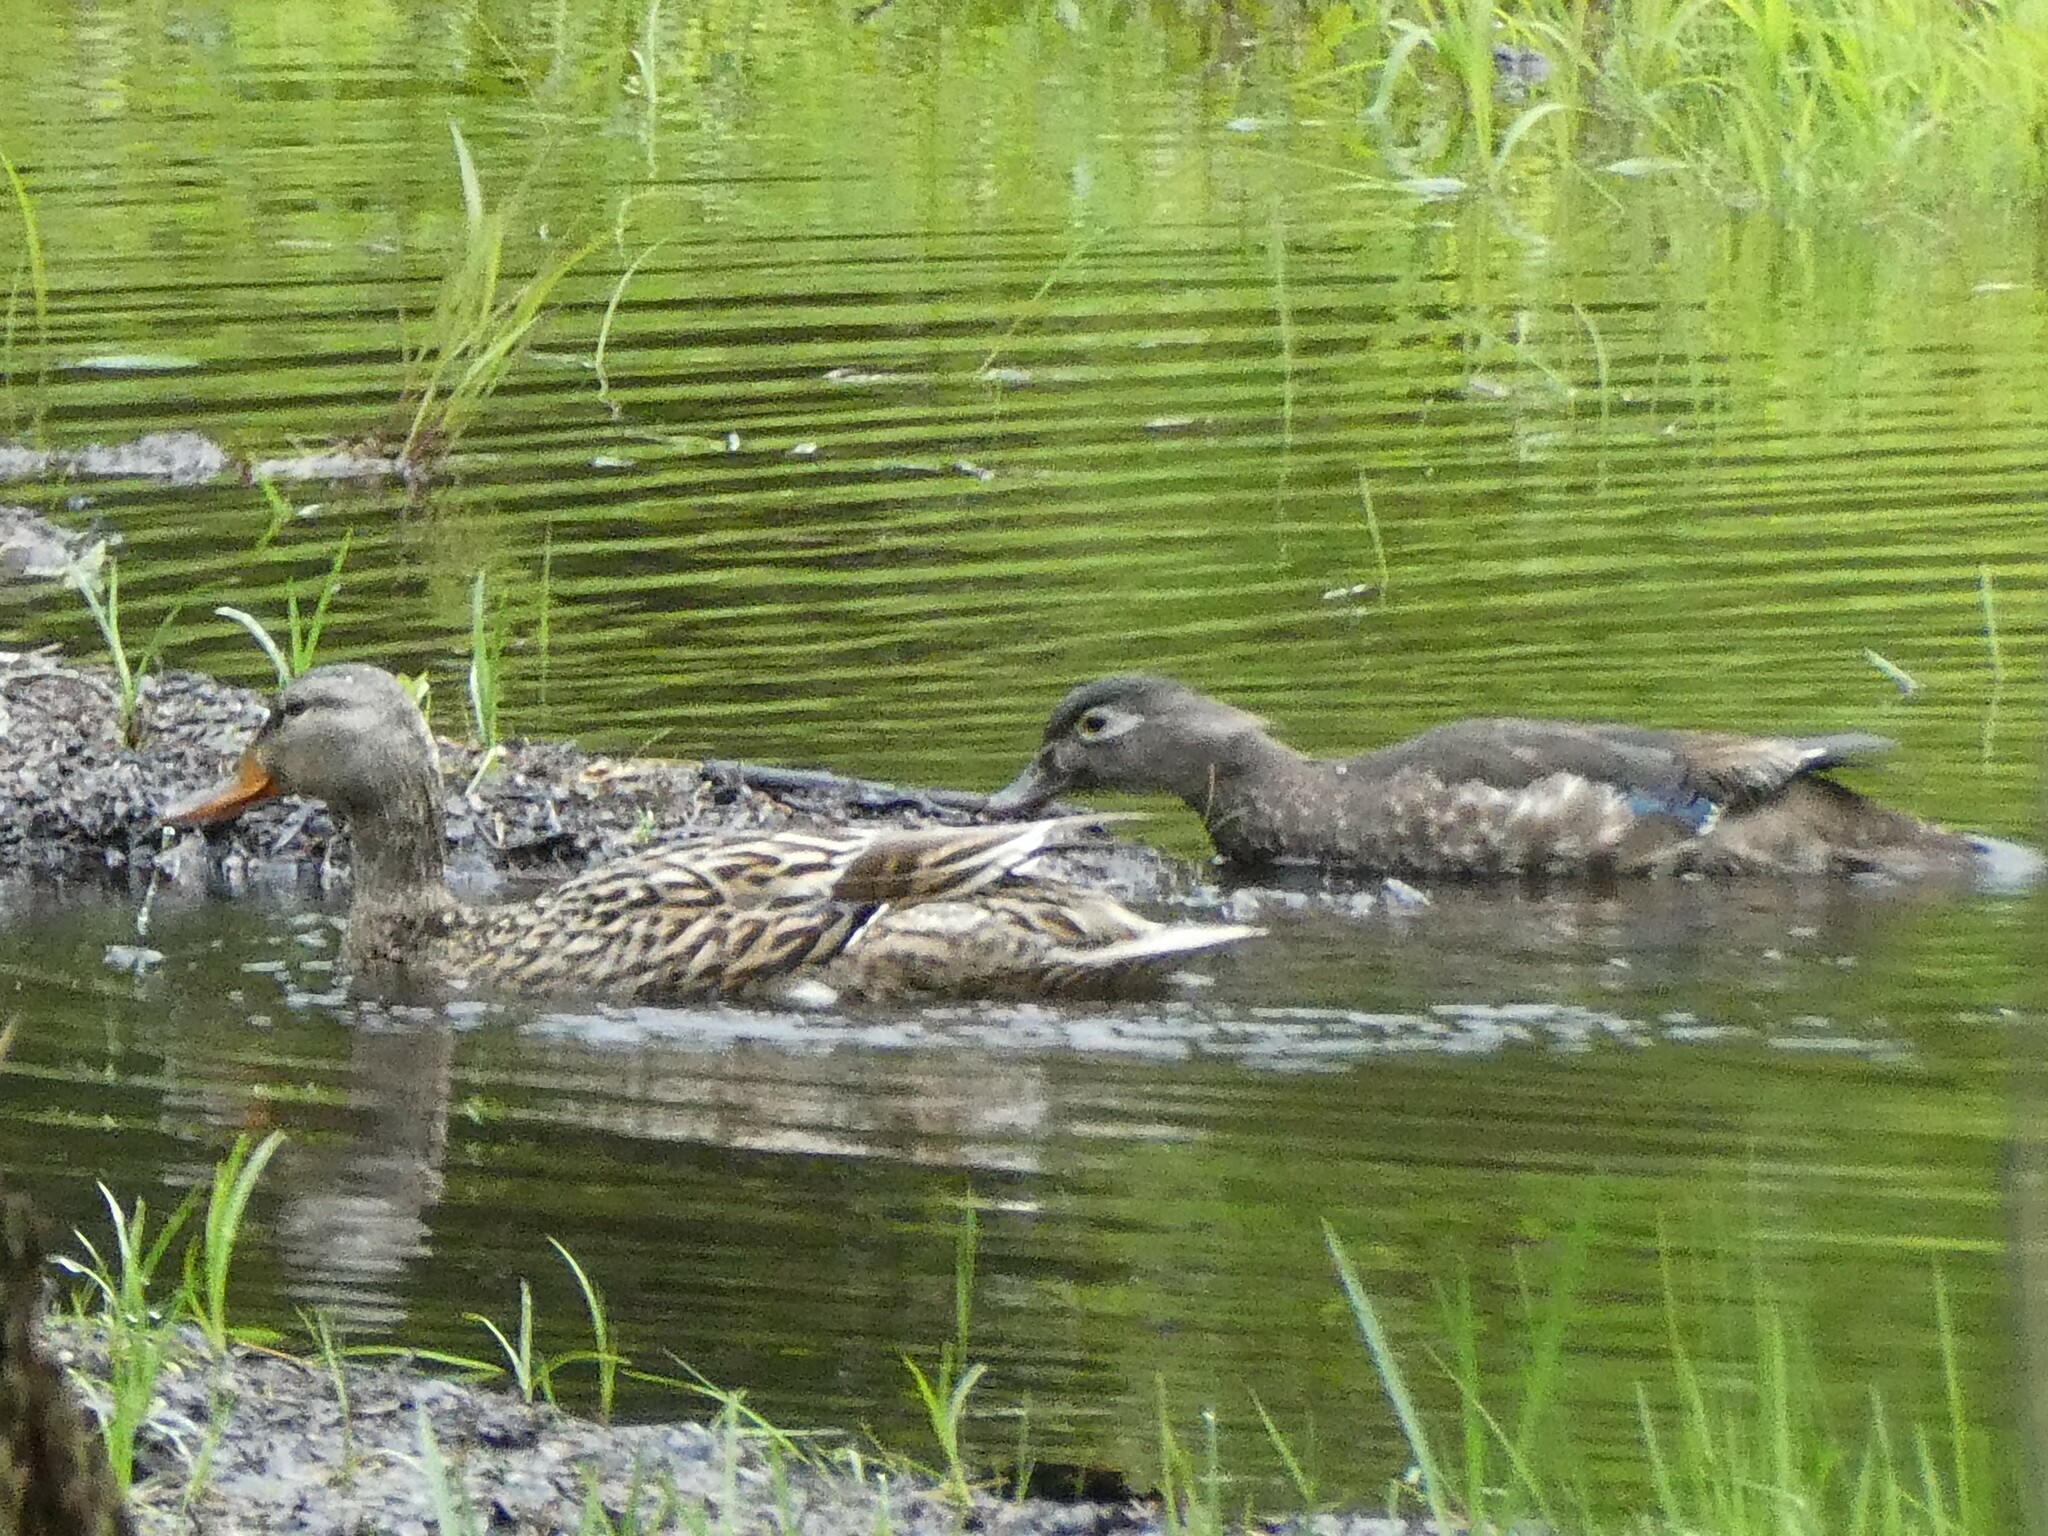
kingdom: Animalia
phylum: Chordata
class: Aves
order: Anseriformes
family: Anatidae
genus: Anas
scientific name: Anas platyrhynchos
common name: Mallard
